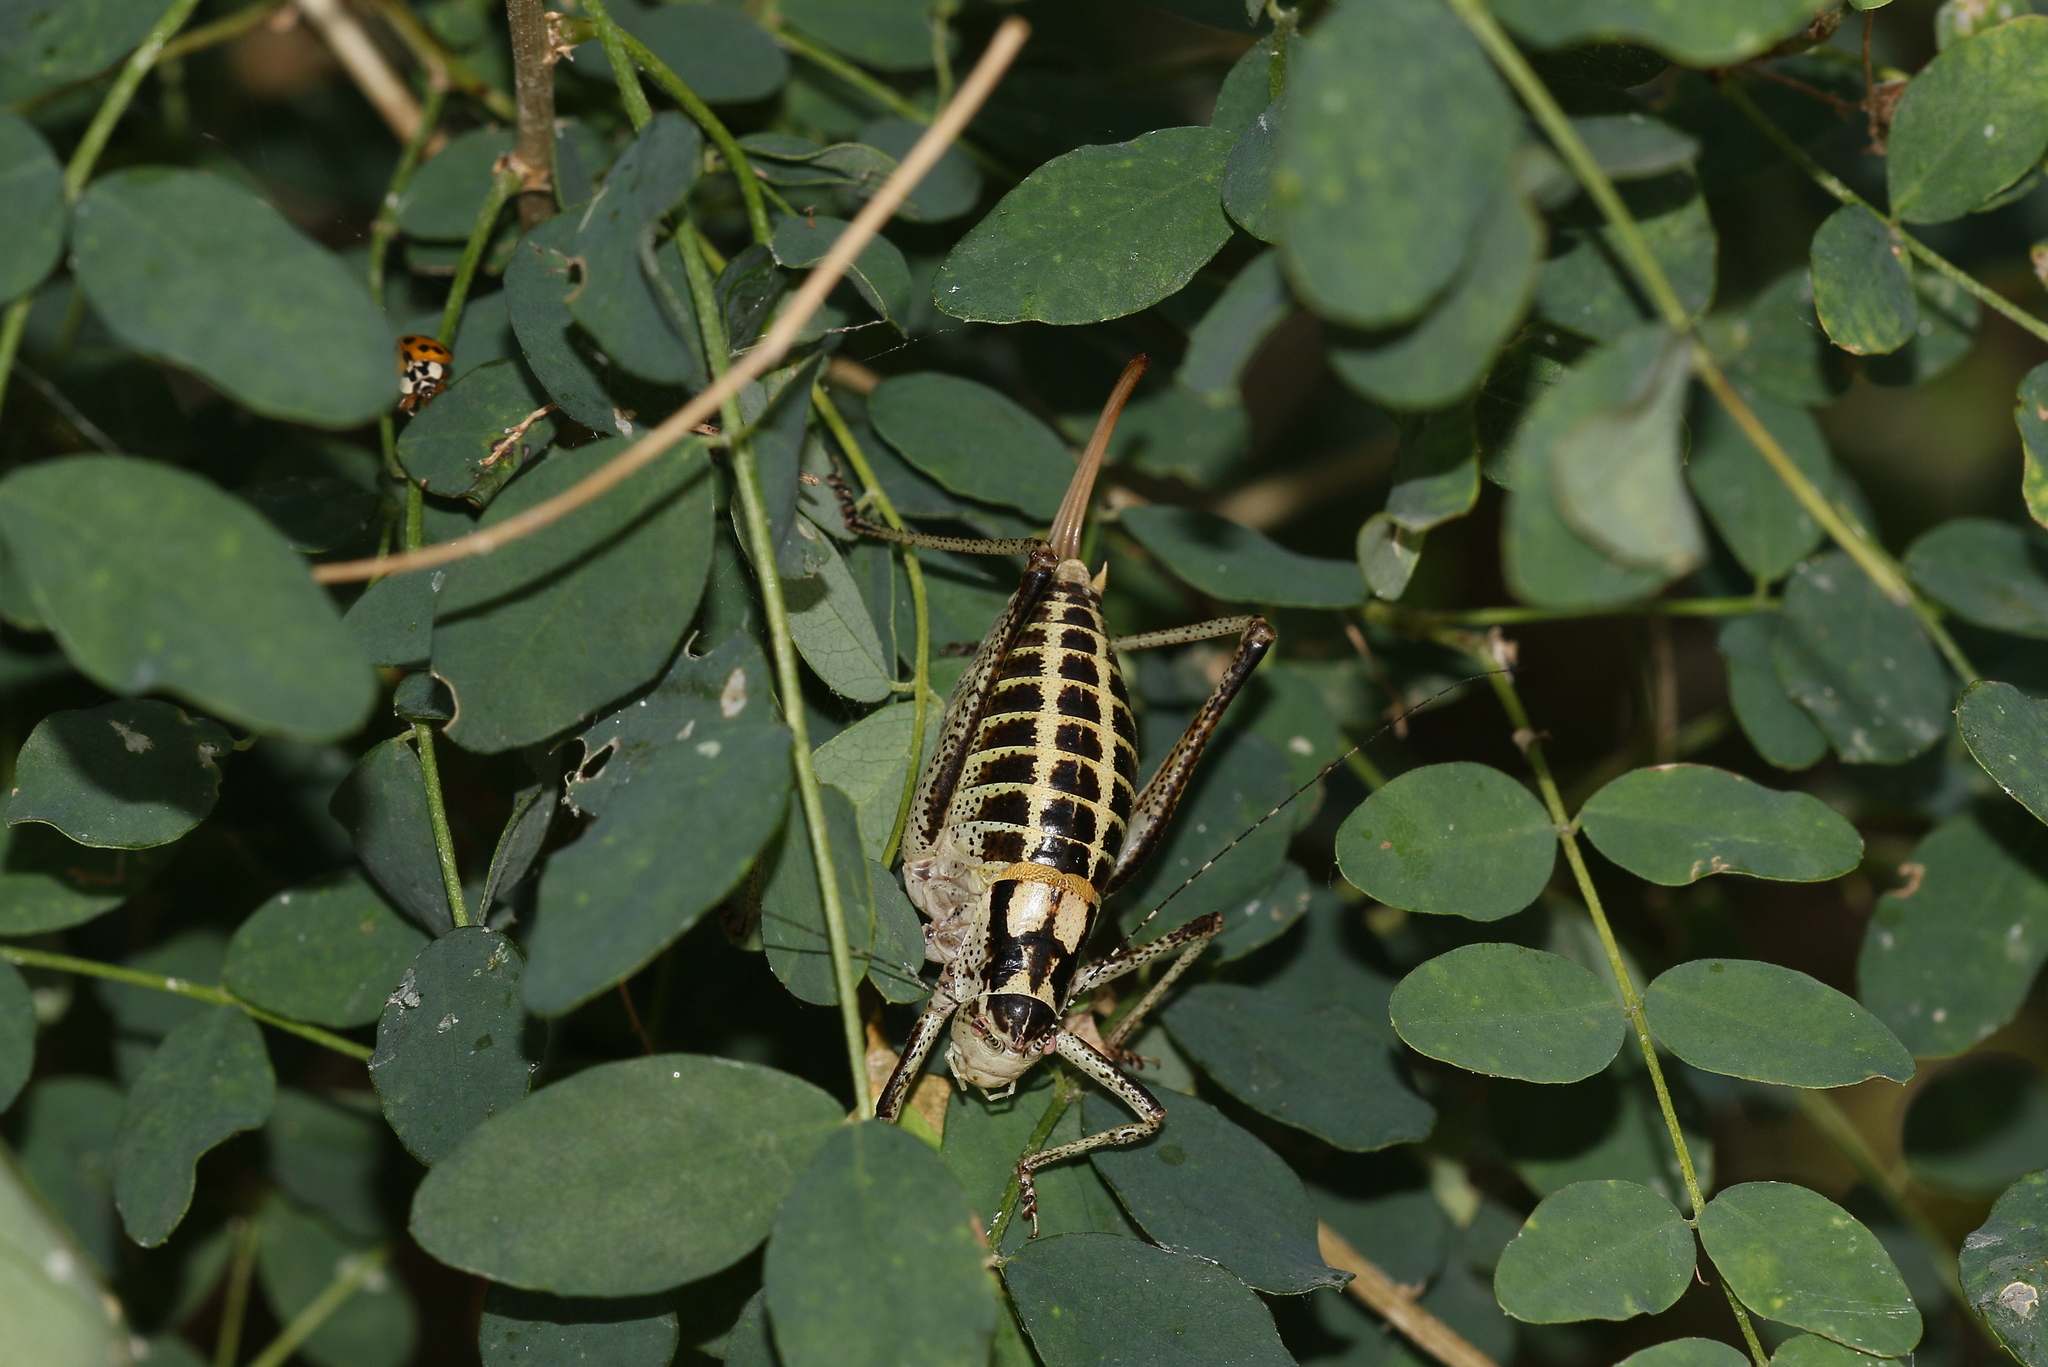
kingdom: Animalia
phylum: Arthropoda
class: Insecta
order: Orthoptera
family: Tettigoniidae
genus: Poecilimon
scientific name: Poecilimon ornatus
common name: Ornate bright bush-cricket
